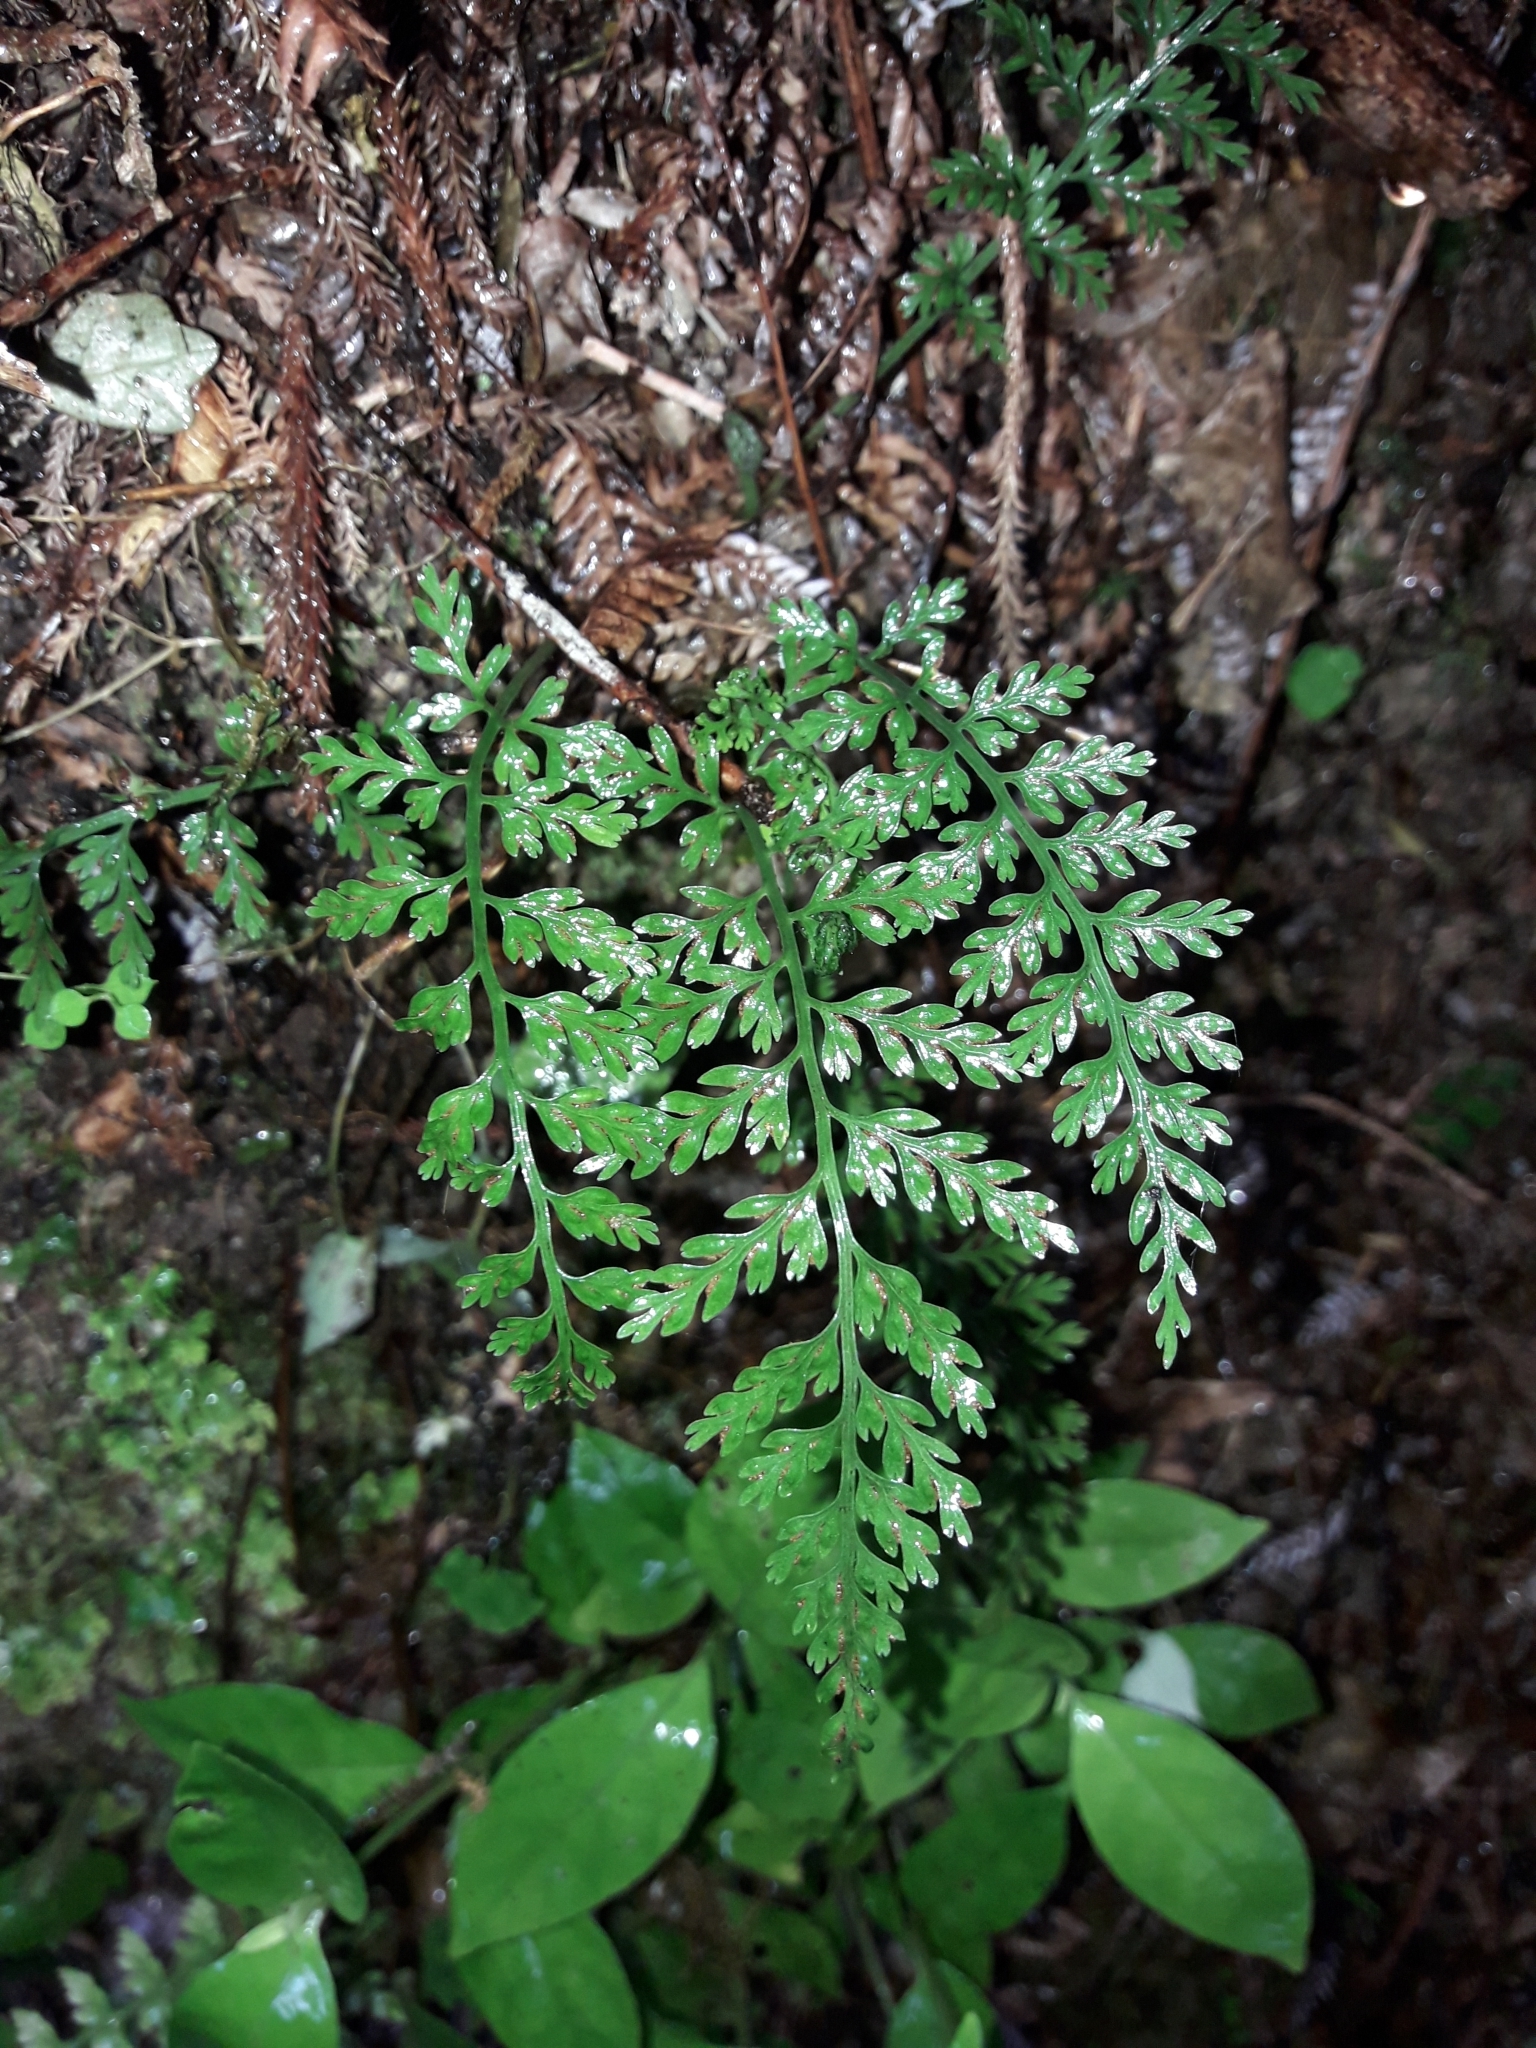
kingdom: Plantae
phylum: Tracheophyta
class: Polypodiopsida
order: Polypodiales
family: Aspleniaceae
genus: Asplenium
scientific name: Asplenium
